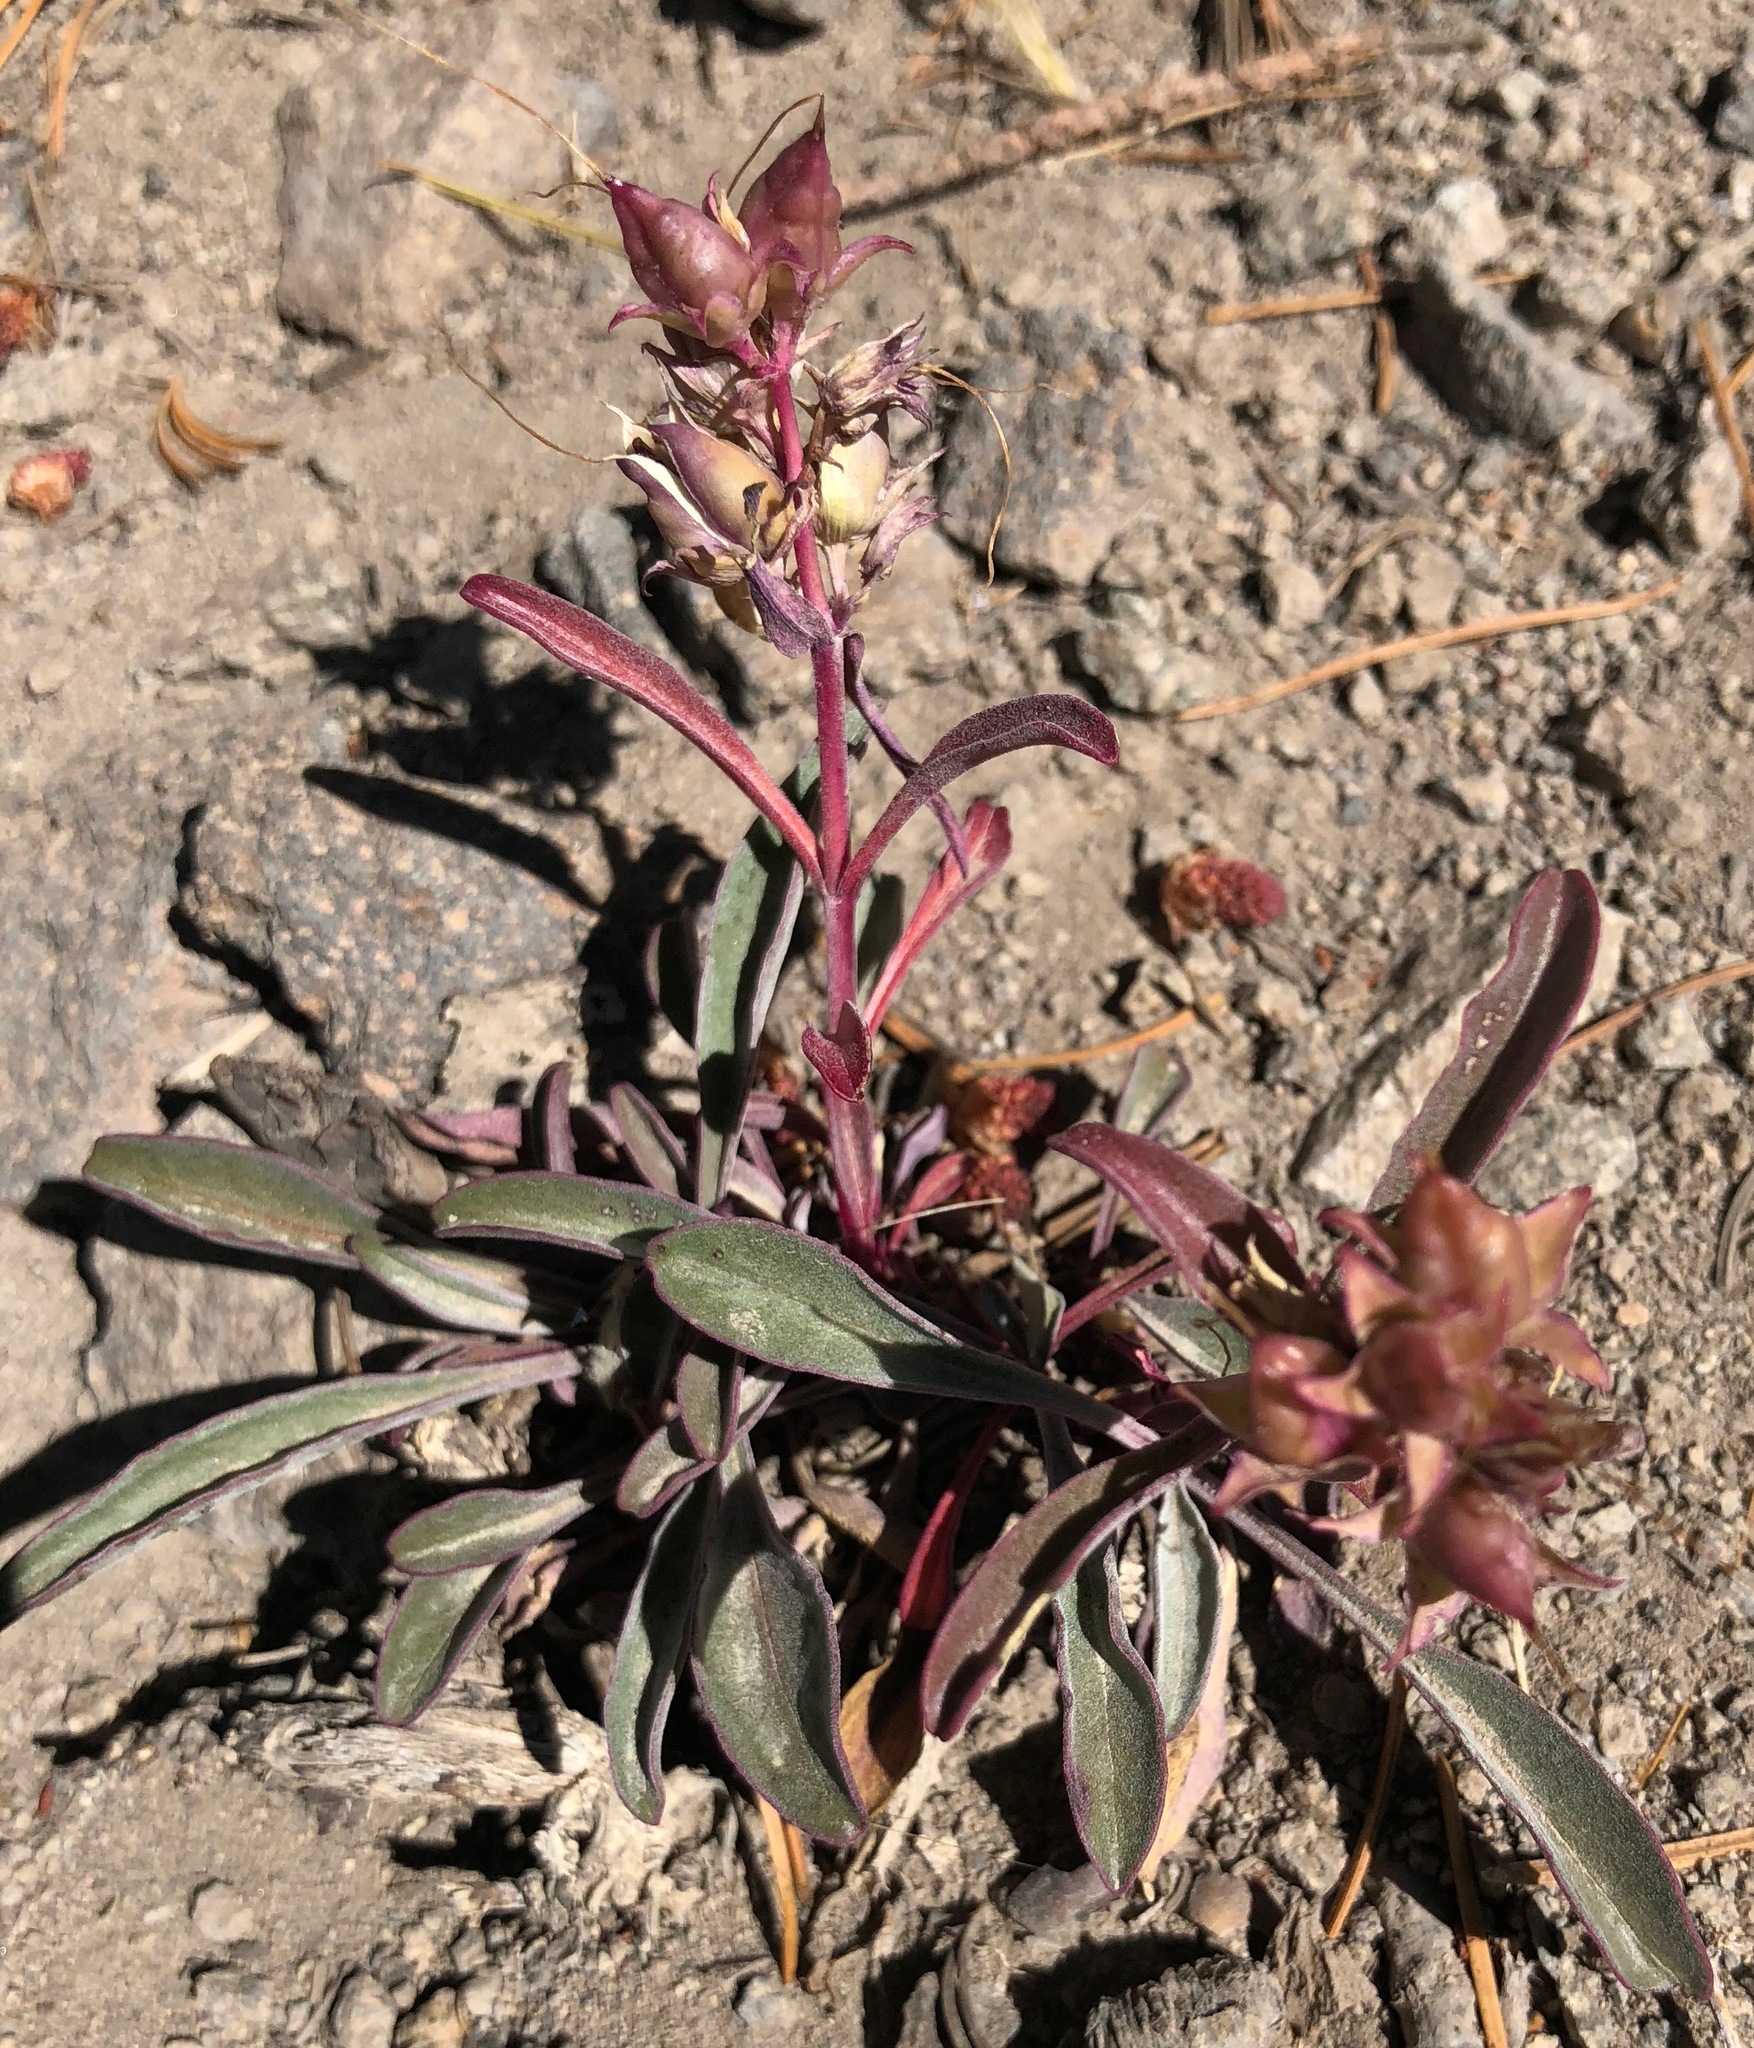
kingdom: Plantae
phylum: Tracheophyta
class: Magnoliopsida
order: Lamiales
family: Plantaginaceae
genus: Penstemon
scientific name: Penstemon speciosus
